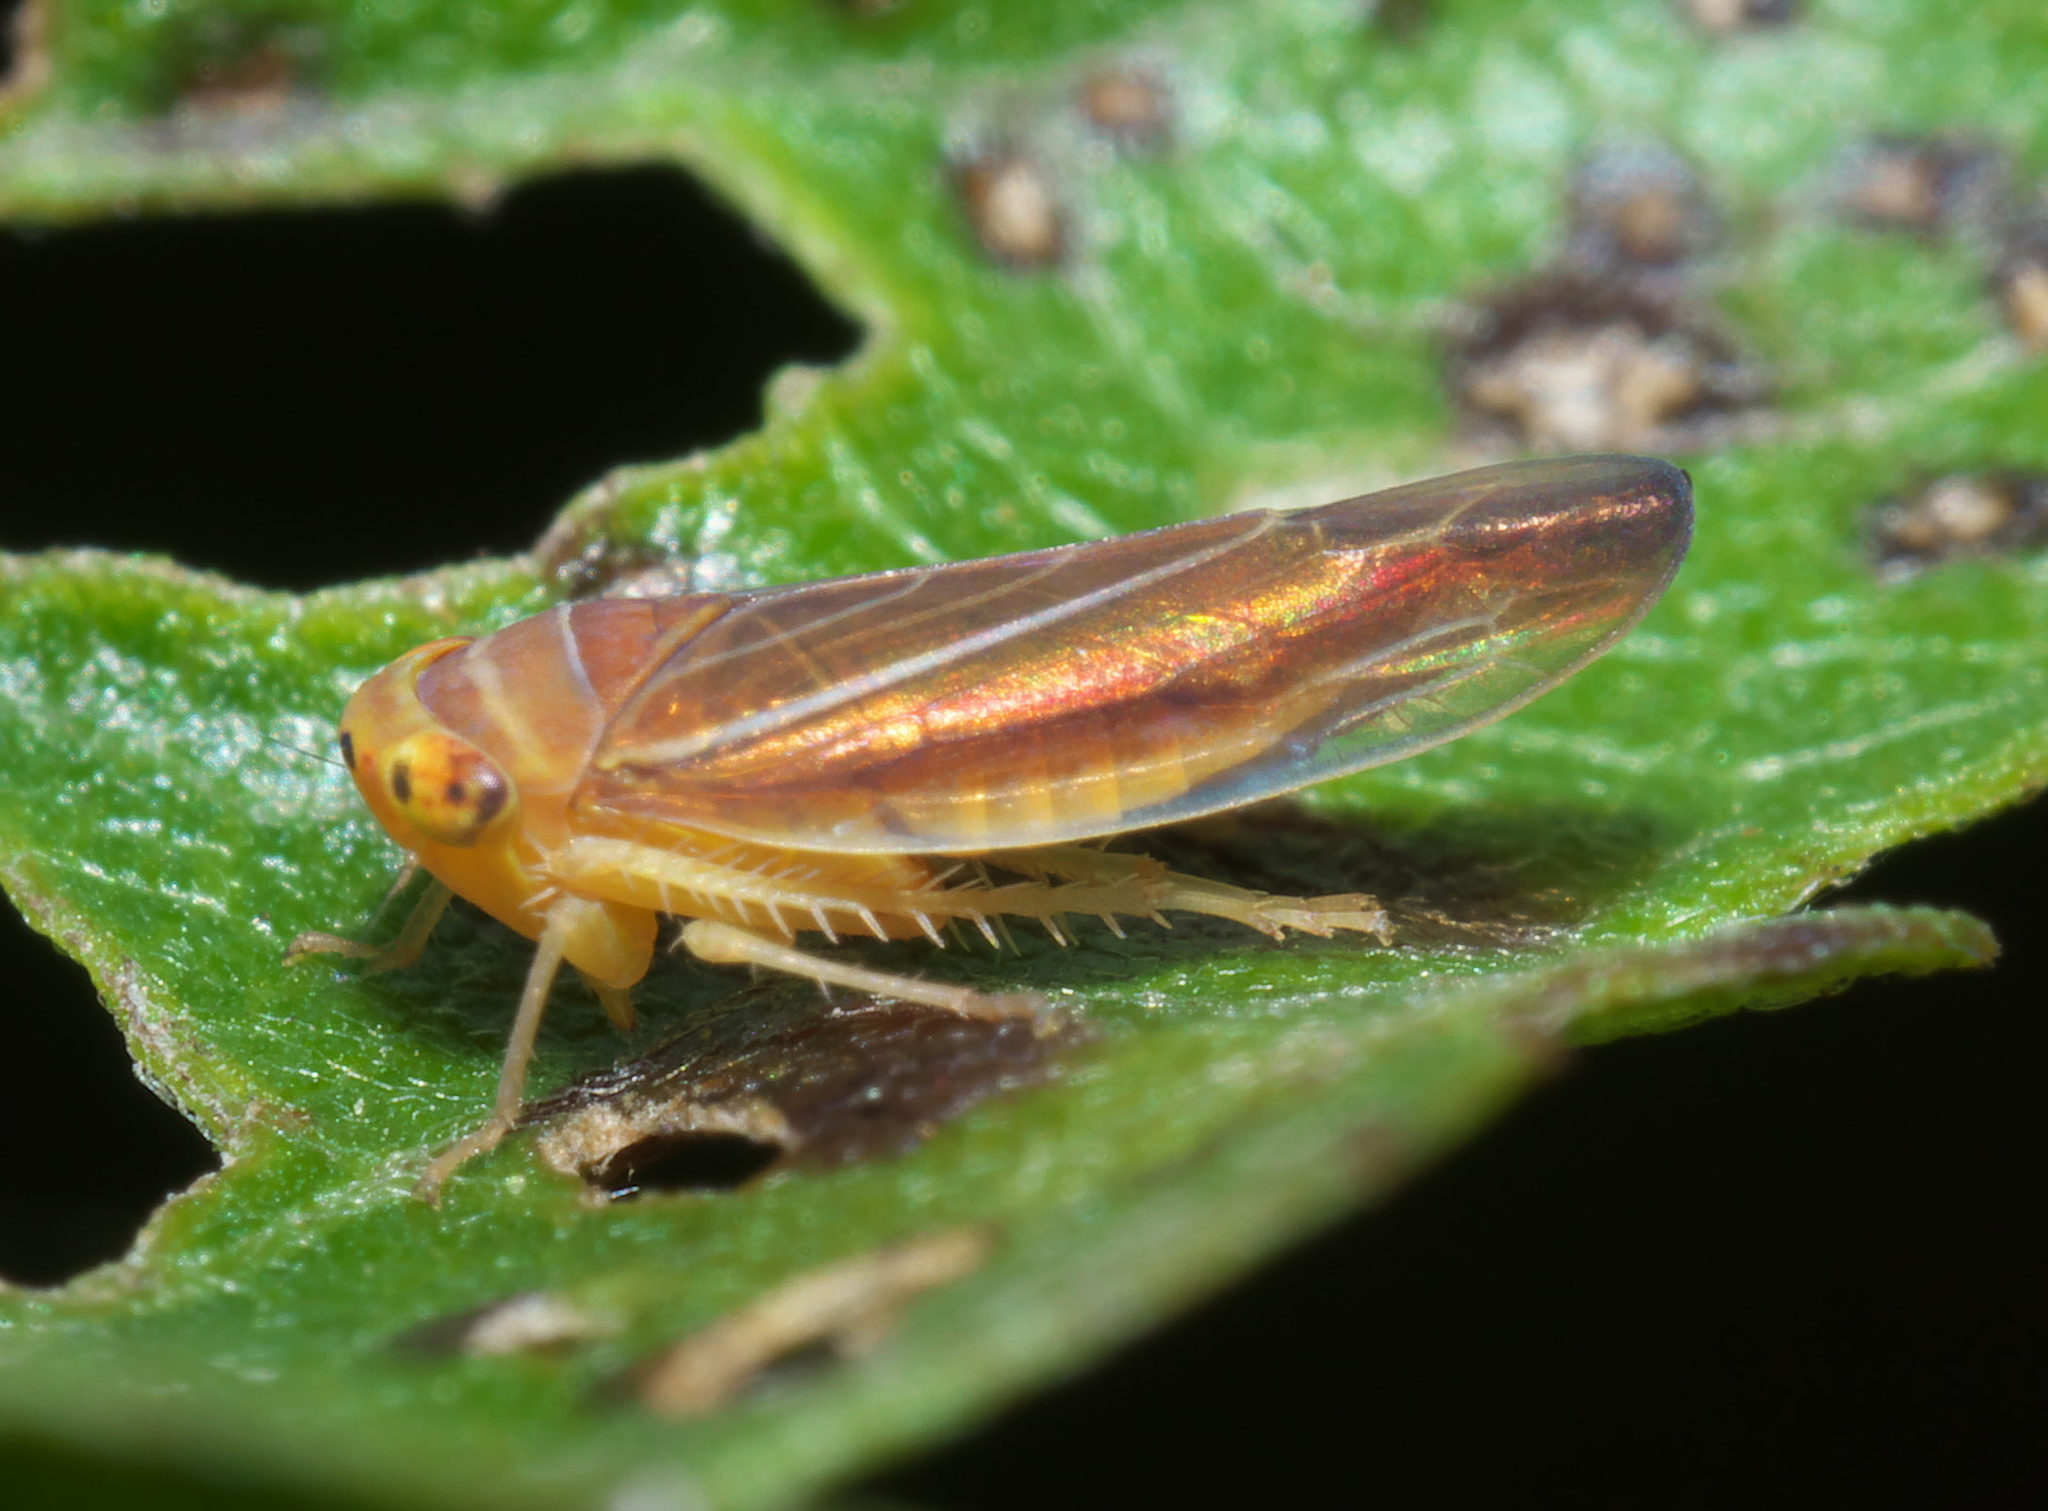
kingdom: Animalia
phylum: Arthropoda
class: Insecta
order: Hemiptera
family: Cicadellidae
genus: Idiodonus
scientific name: Idiodonus kennicotti
